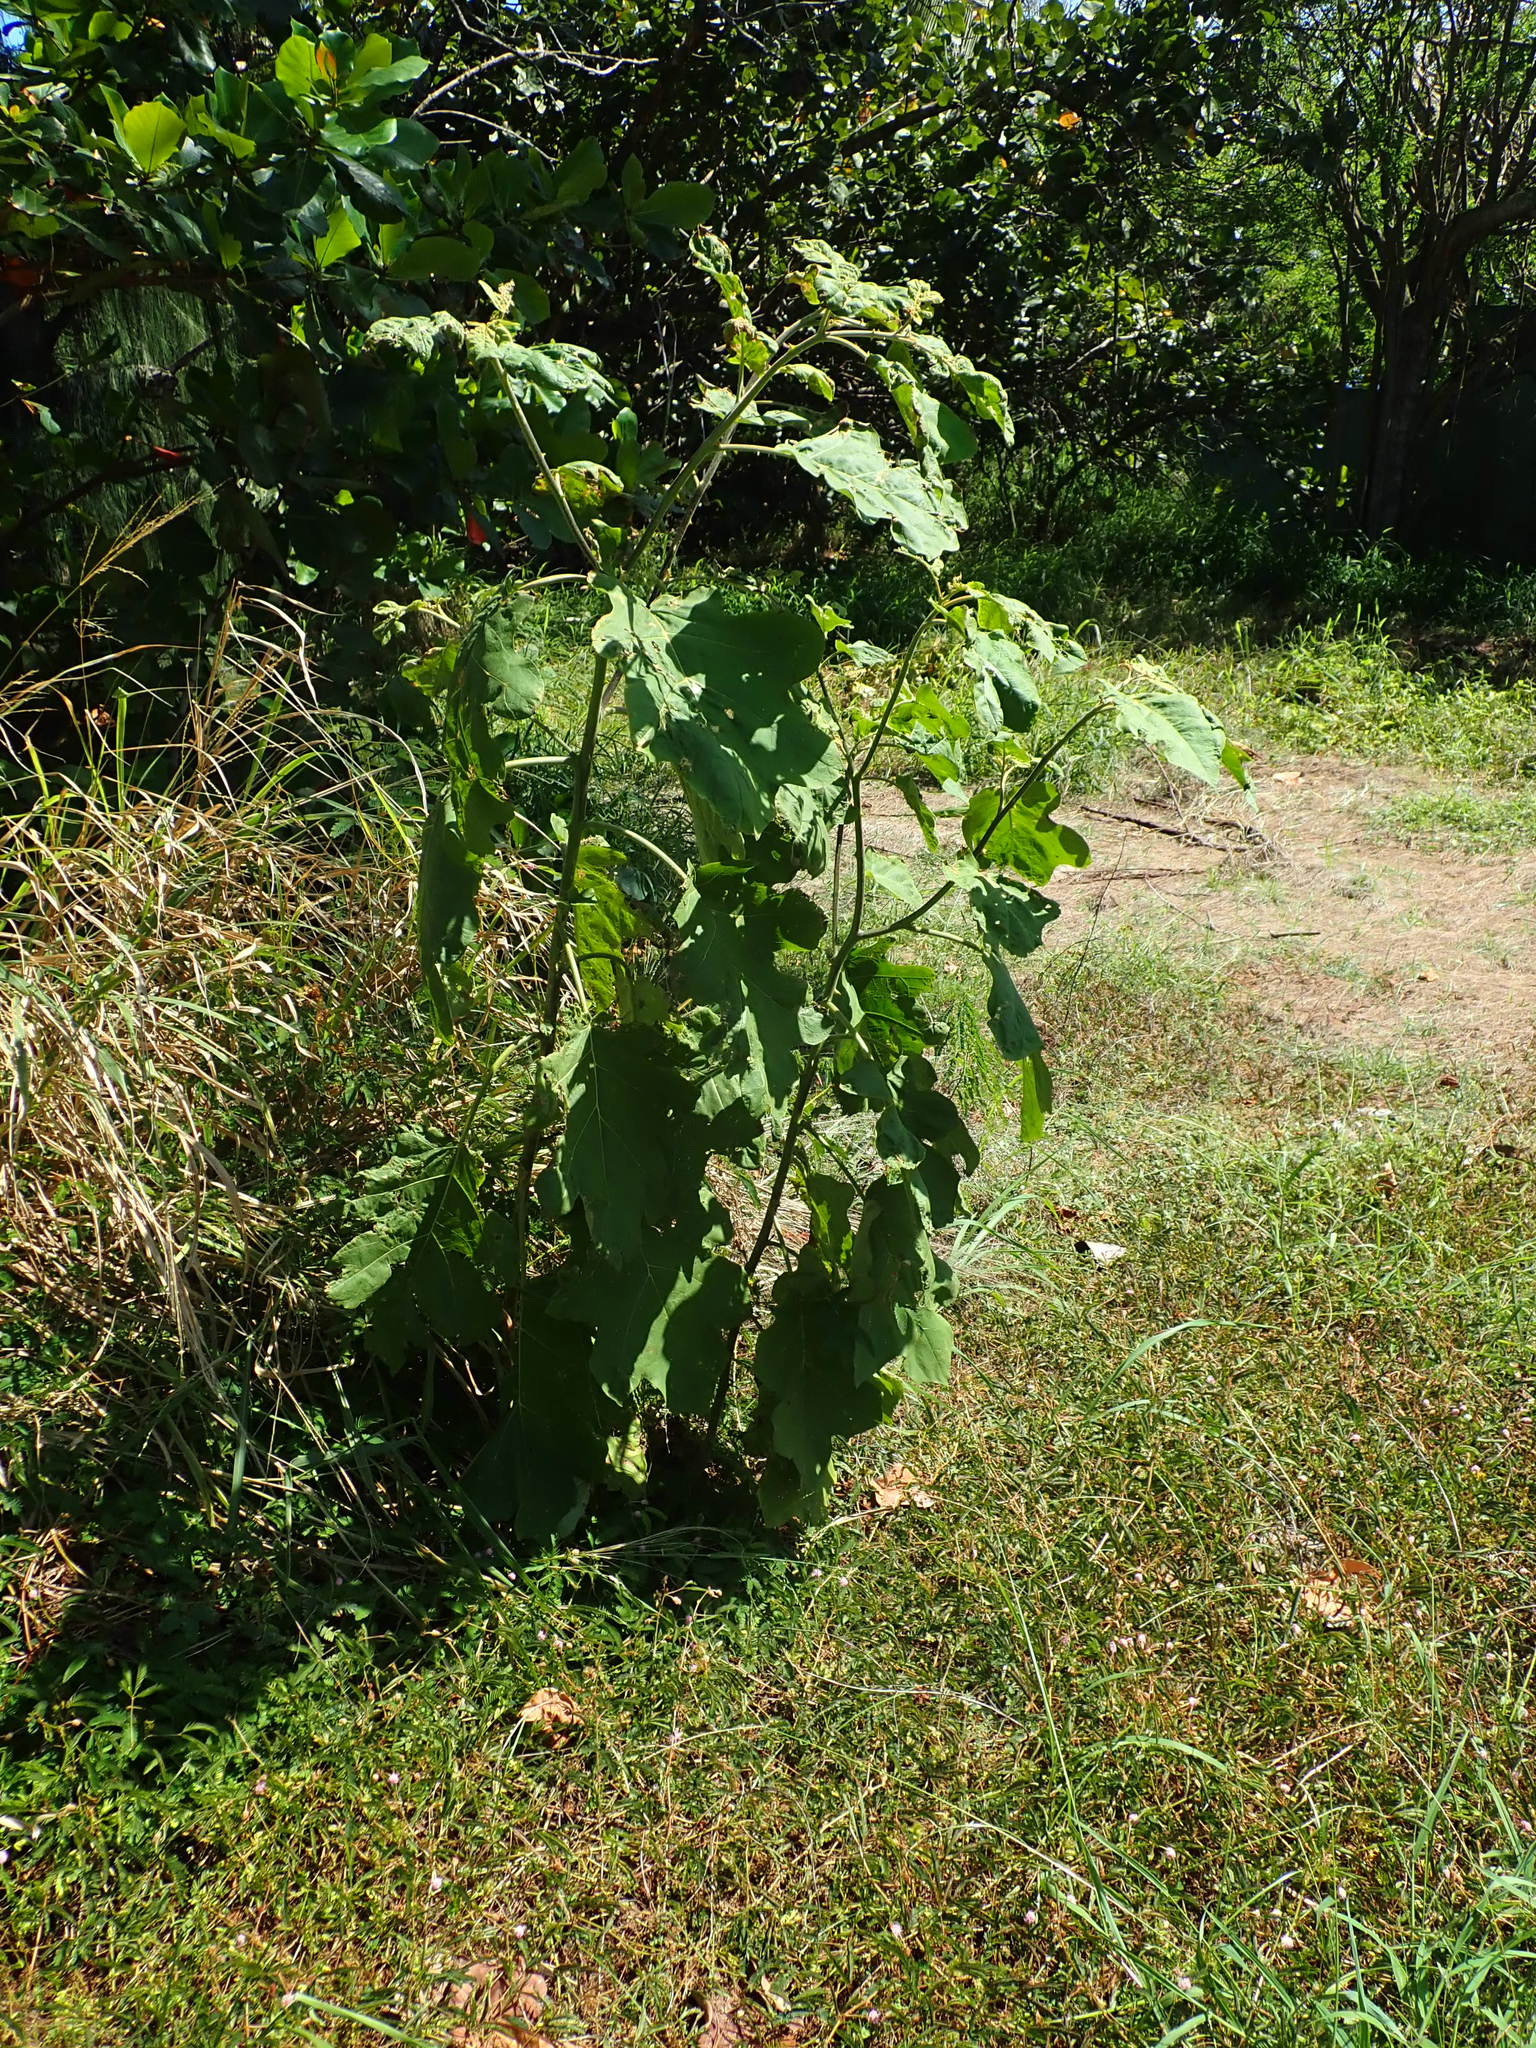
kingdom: Plantae
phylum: Tracheophyta
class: Magnoliopsida
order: Solanales
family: Solanaceae
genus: Solanum
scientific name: Solanum torvum
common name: Turkey berry
